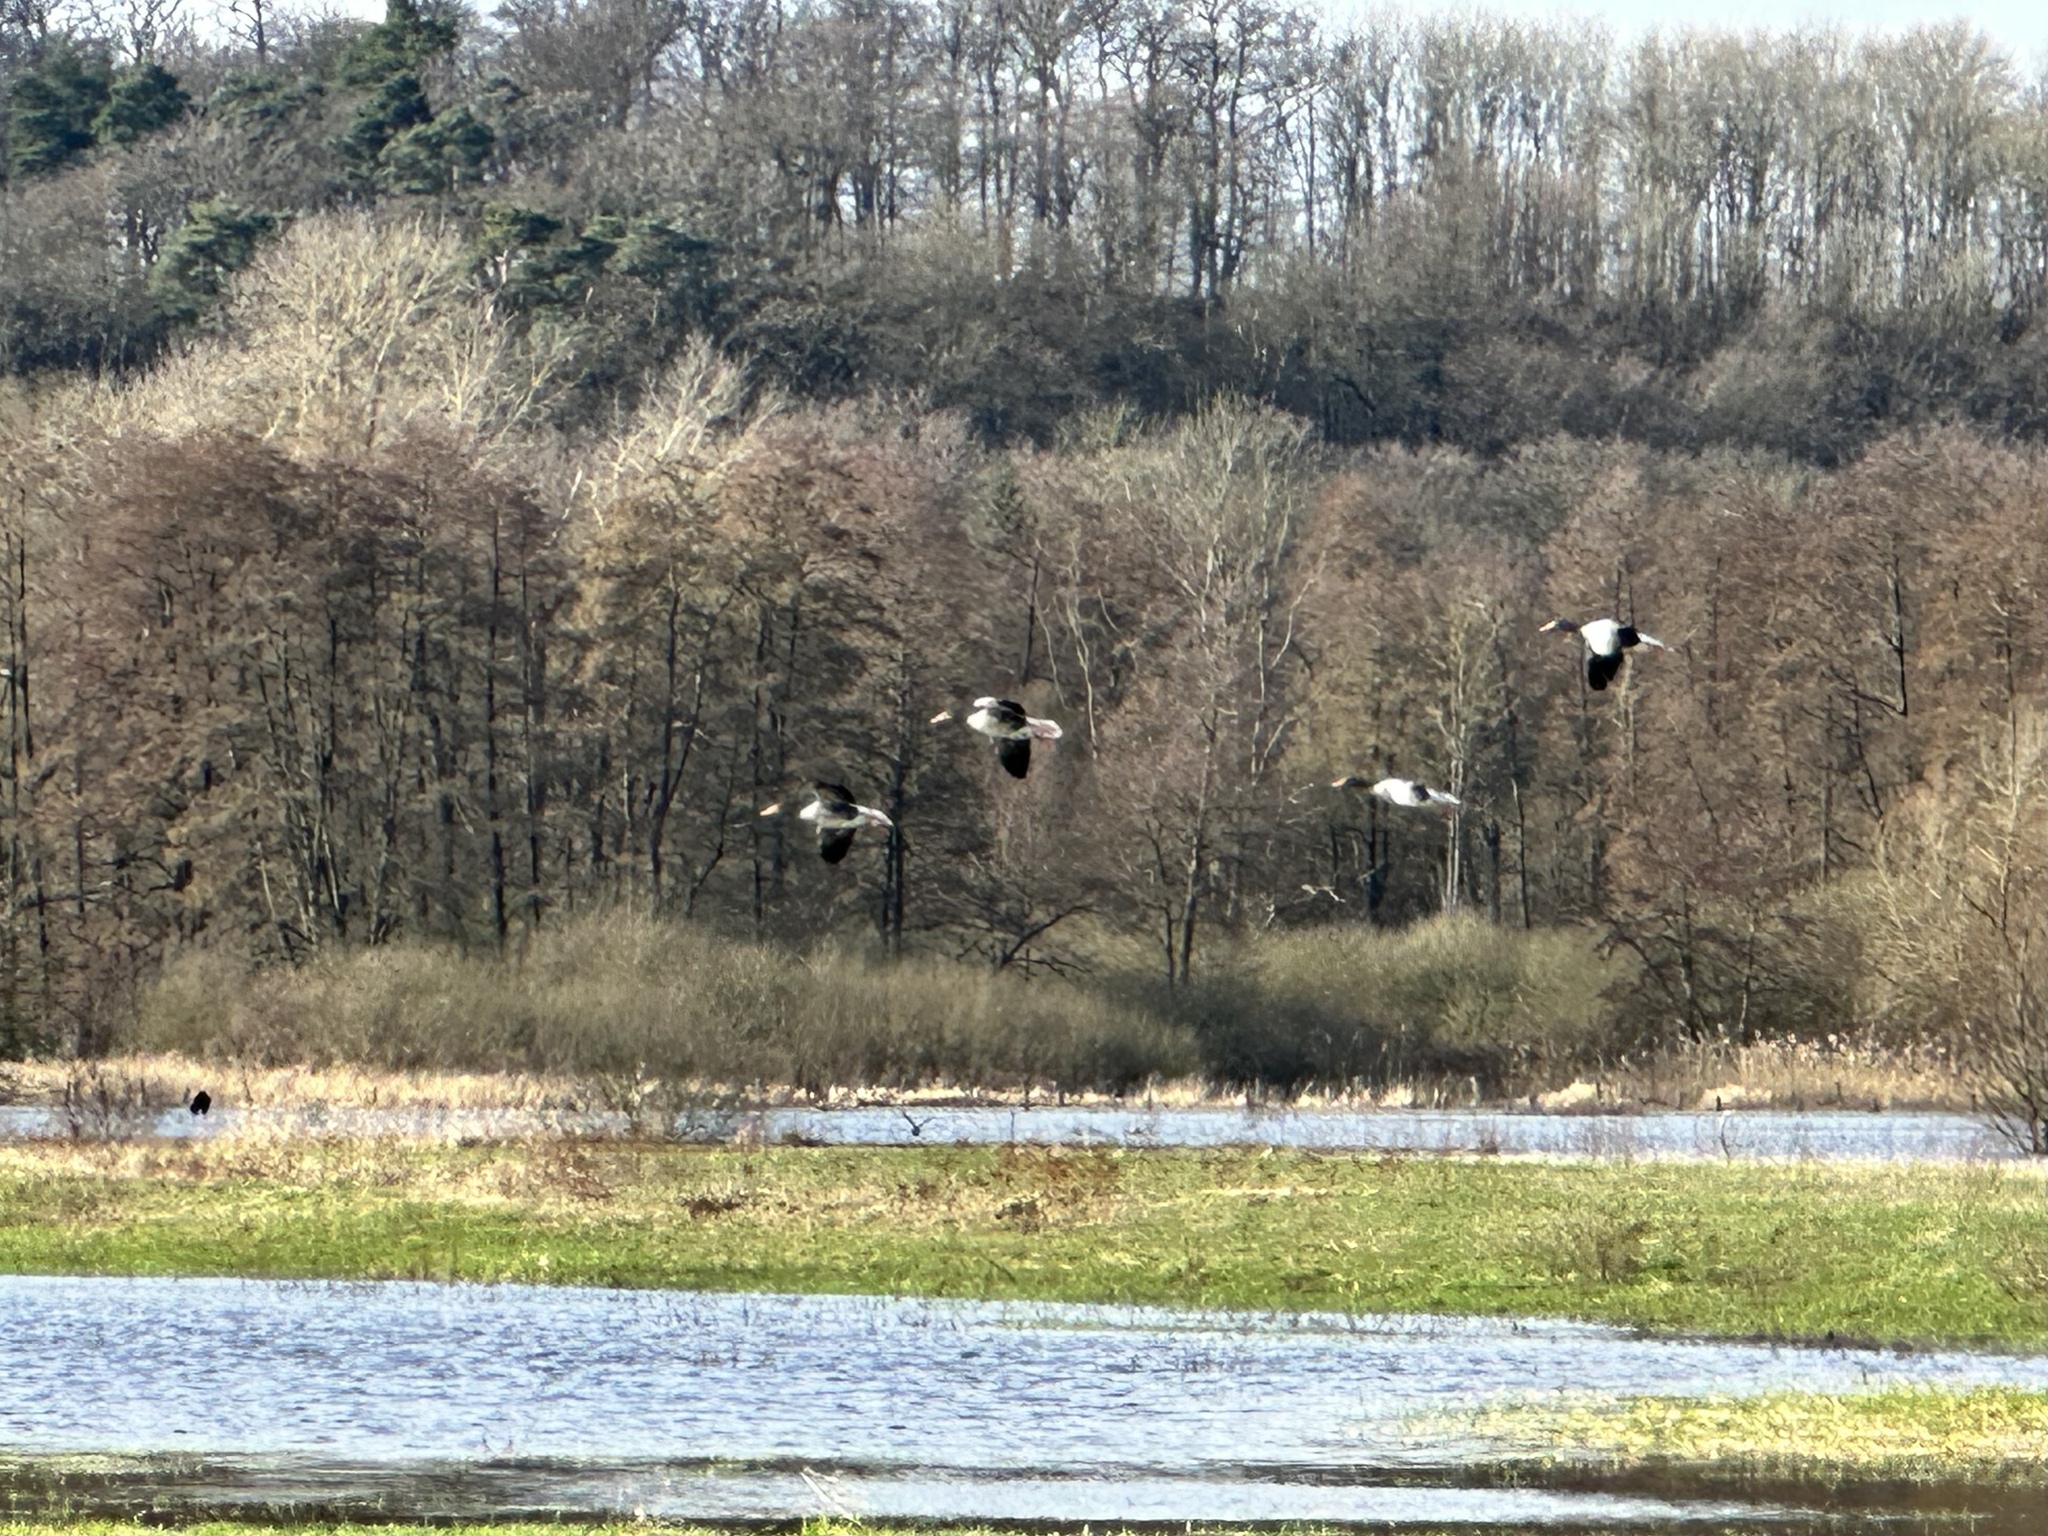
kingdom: Animalia
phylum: Chordata
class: Aves
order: Anseriformes
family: Anatidae
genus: Anser
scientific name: Anser anser
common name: Greylag goose
